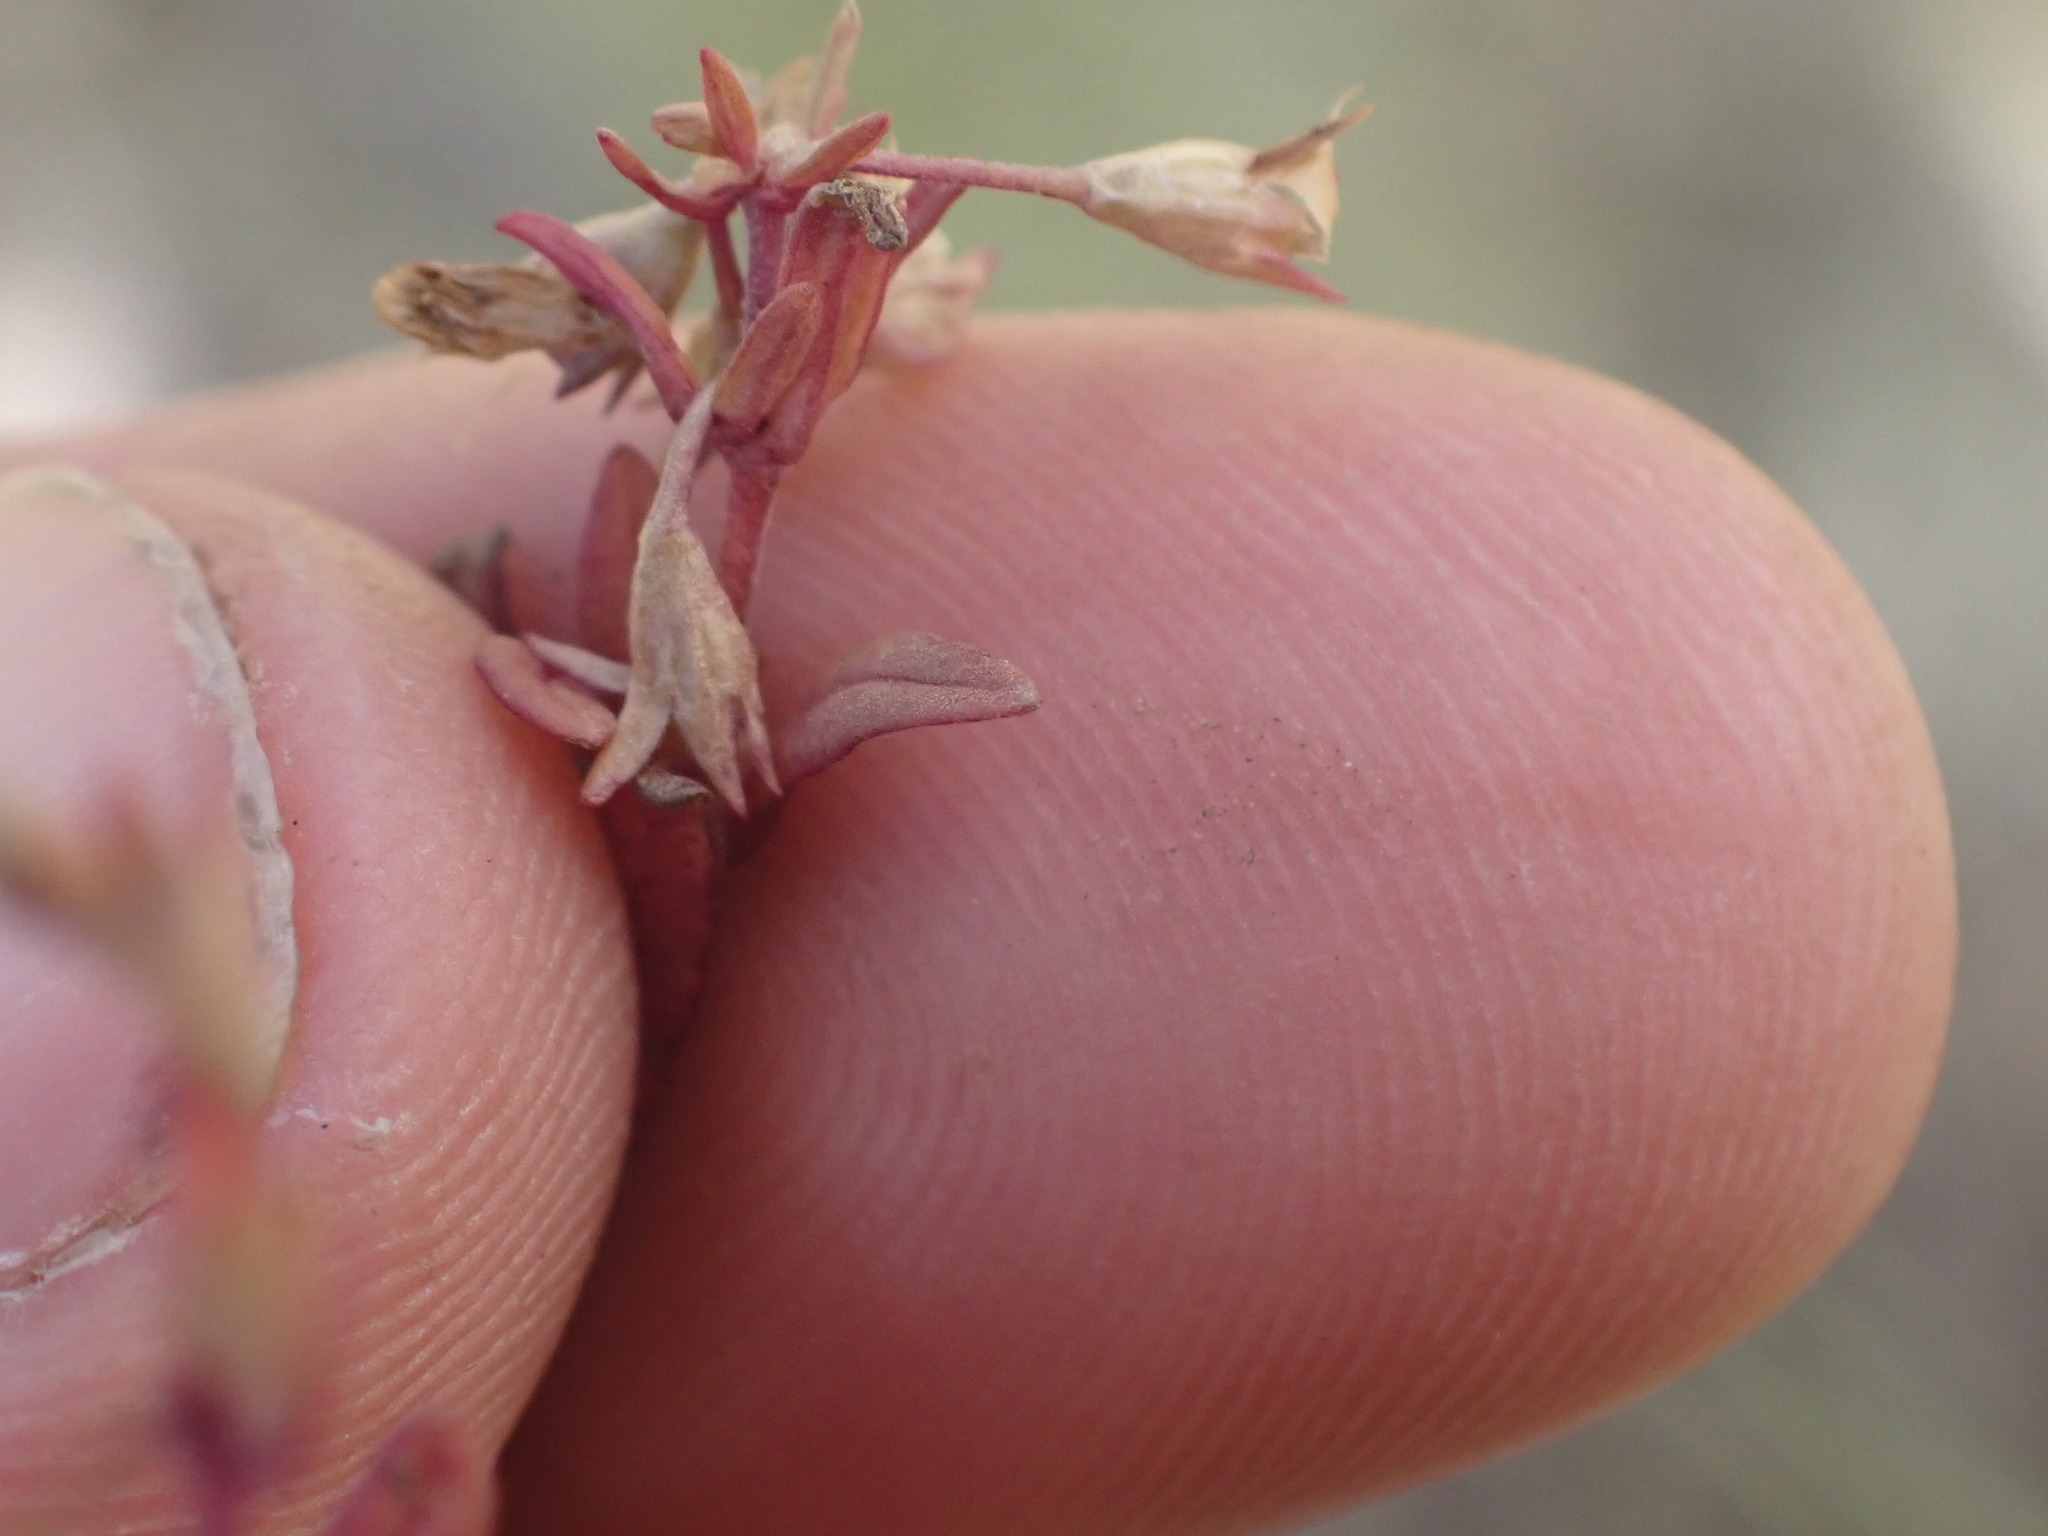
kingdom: Plantae
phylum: Tracheophyta
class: Magnoliopsida
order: Lamiales
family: Plantaginaceae
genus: Collinsia
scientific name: Collinsia parviflora
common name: Blue-lips
